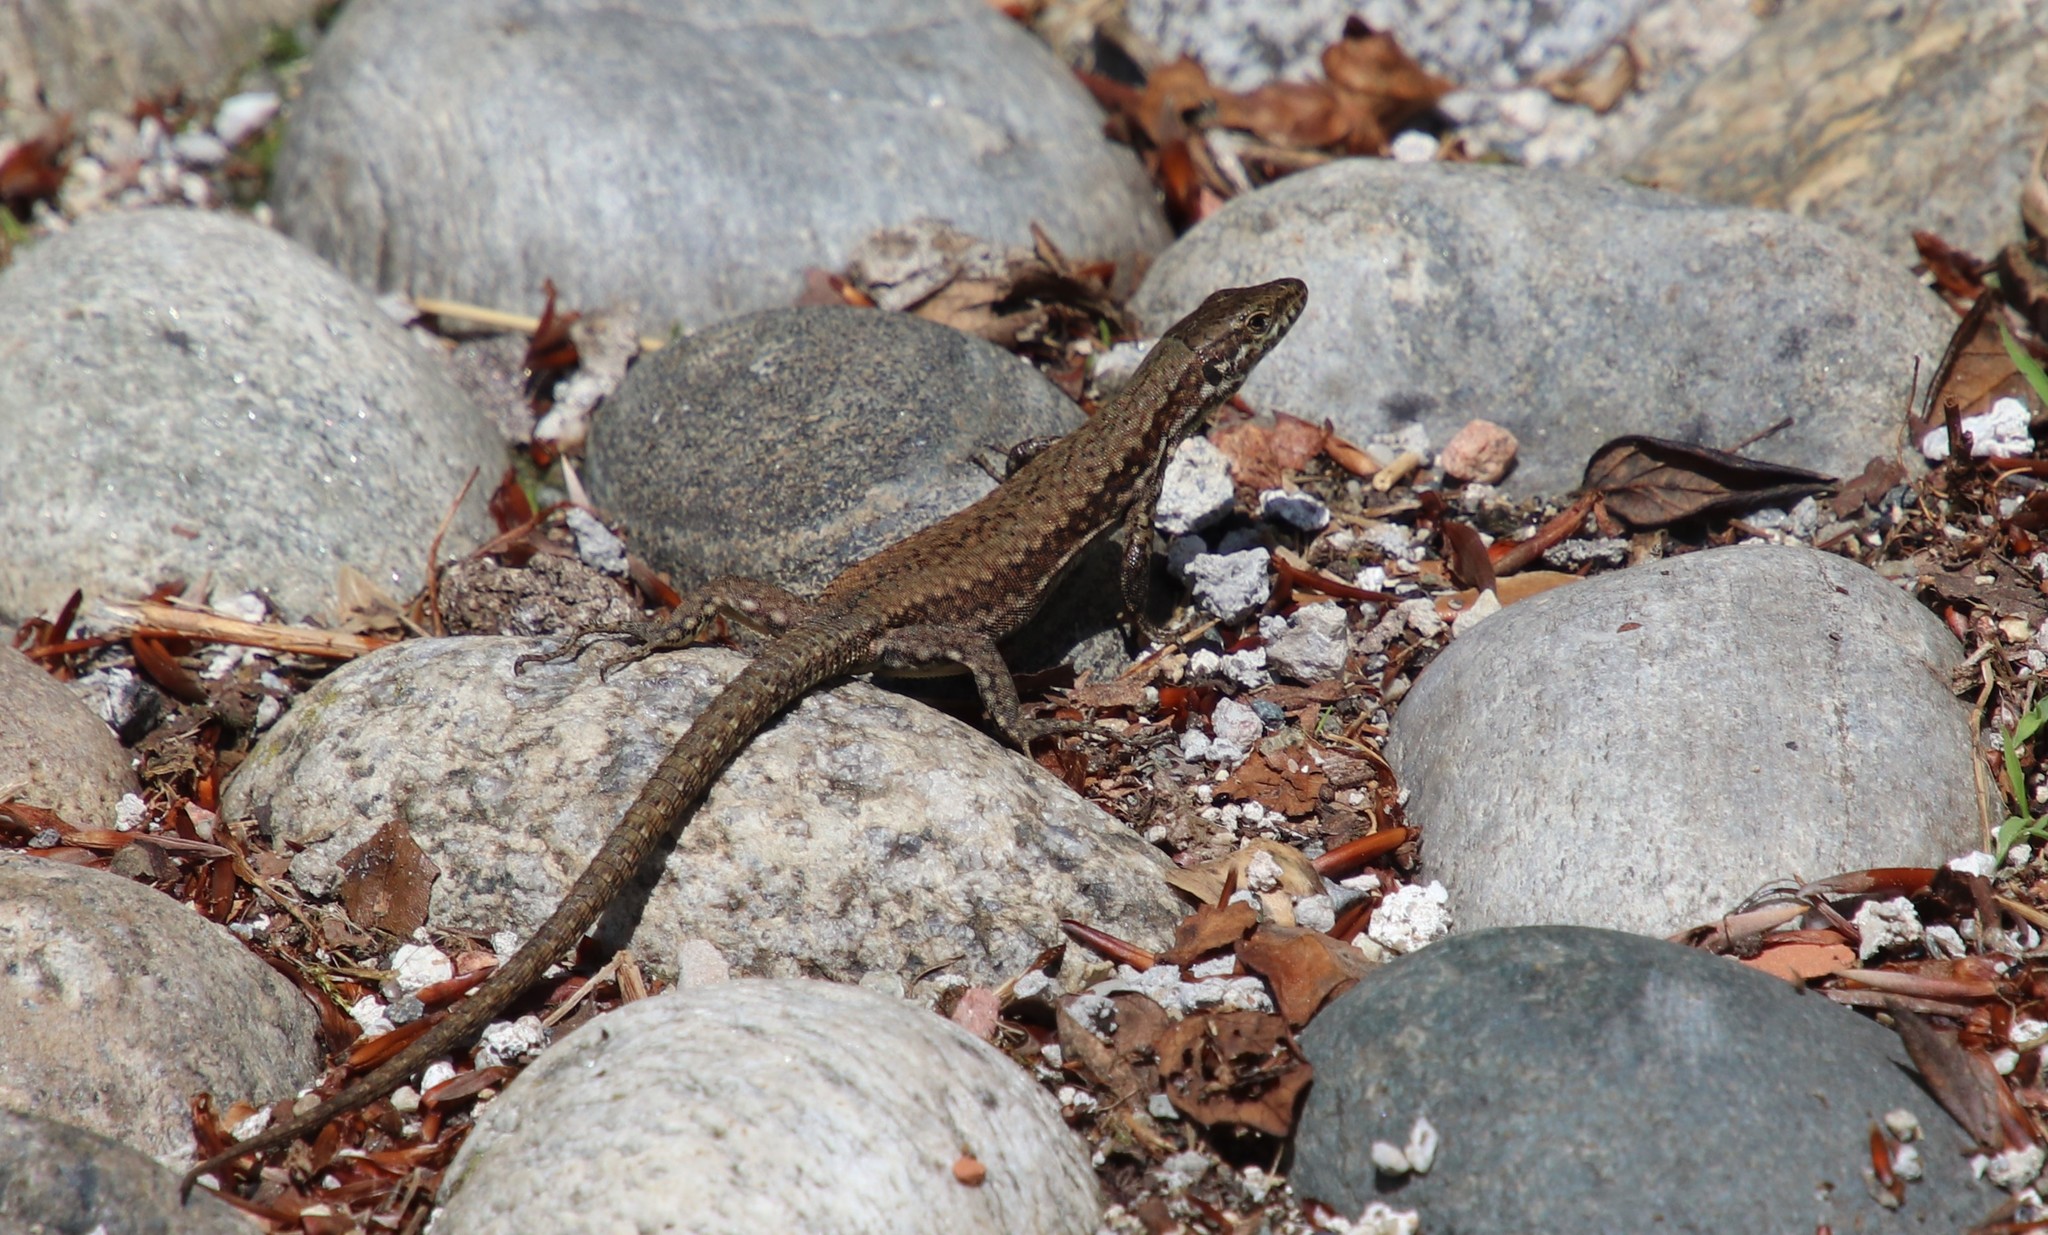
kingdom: Animalia
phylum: Chordata
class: Squamata
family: Lacertidae
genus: Podarcis
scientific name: Podarcis muralis
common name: Common wall lizard
